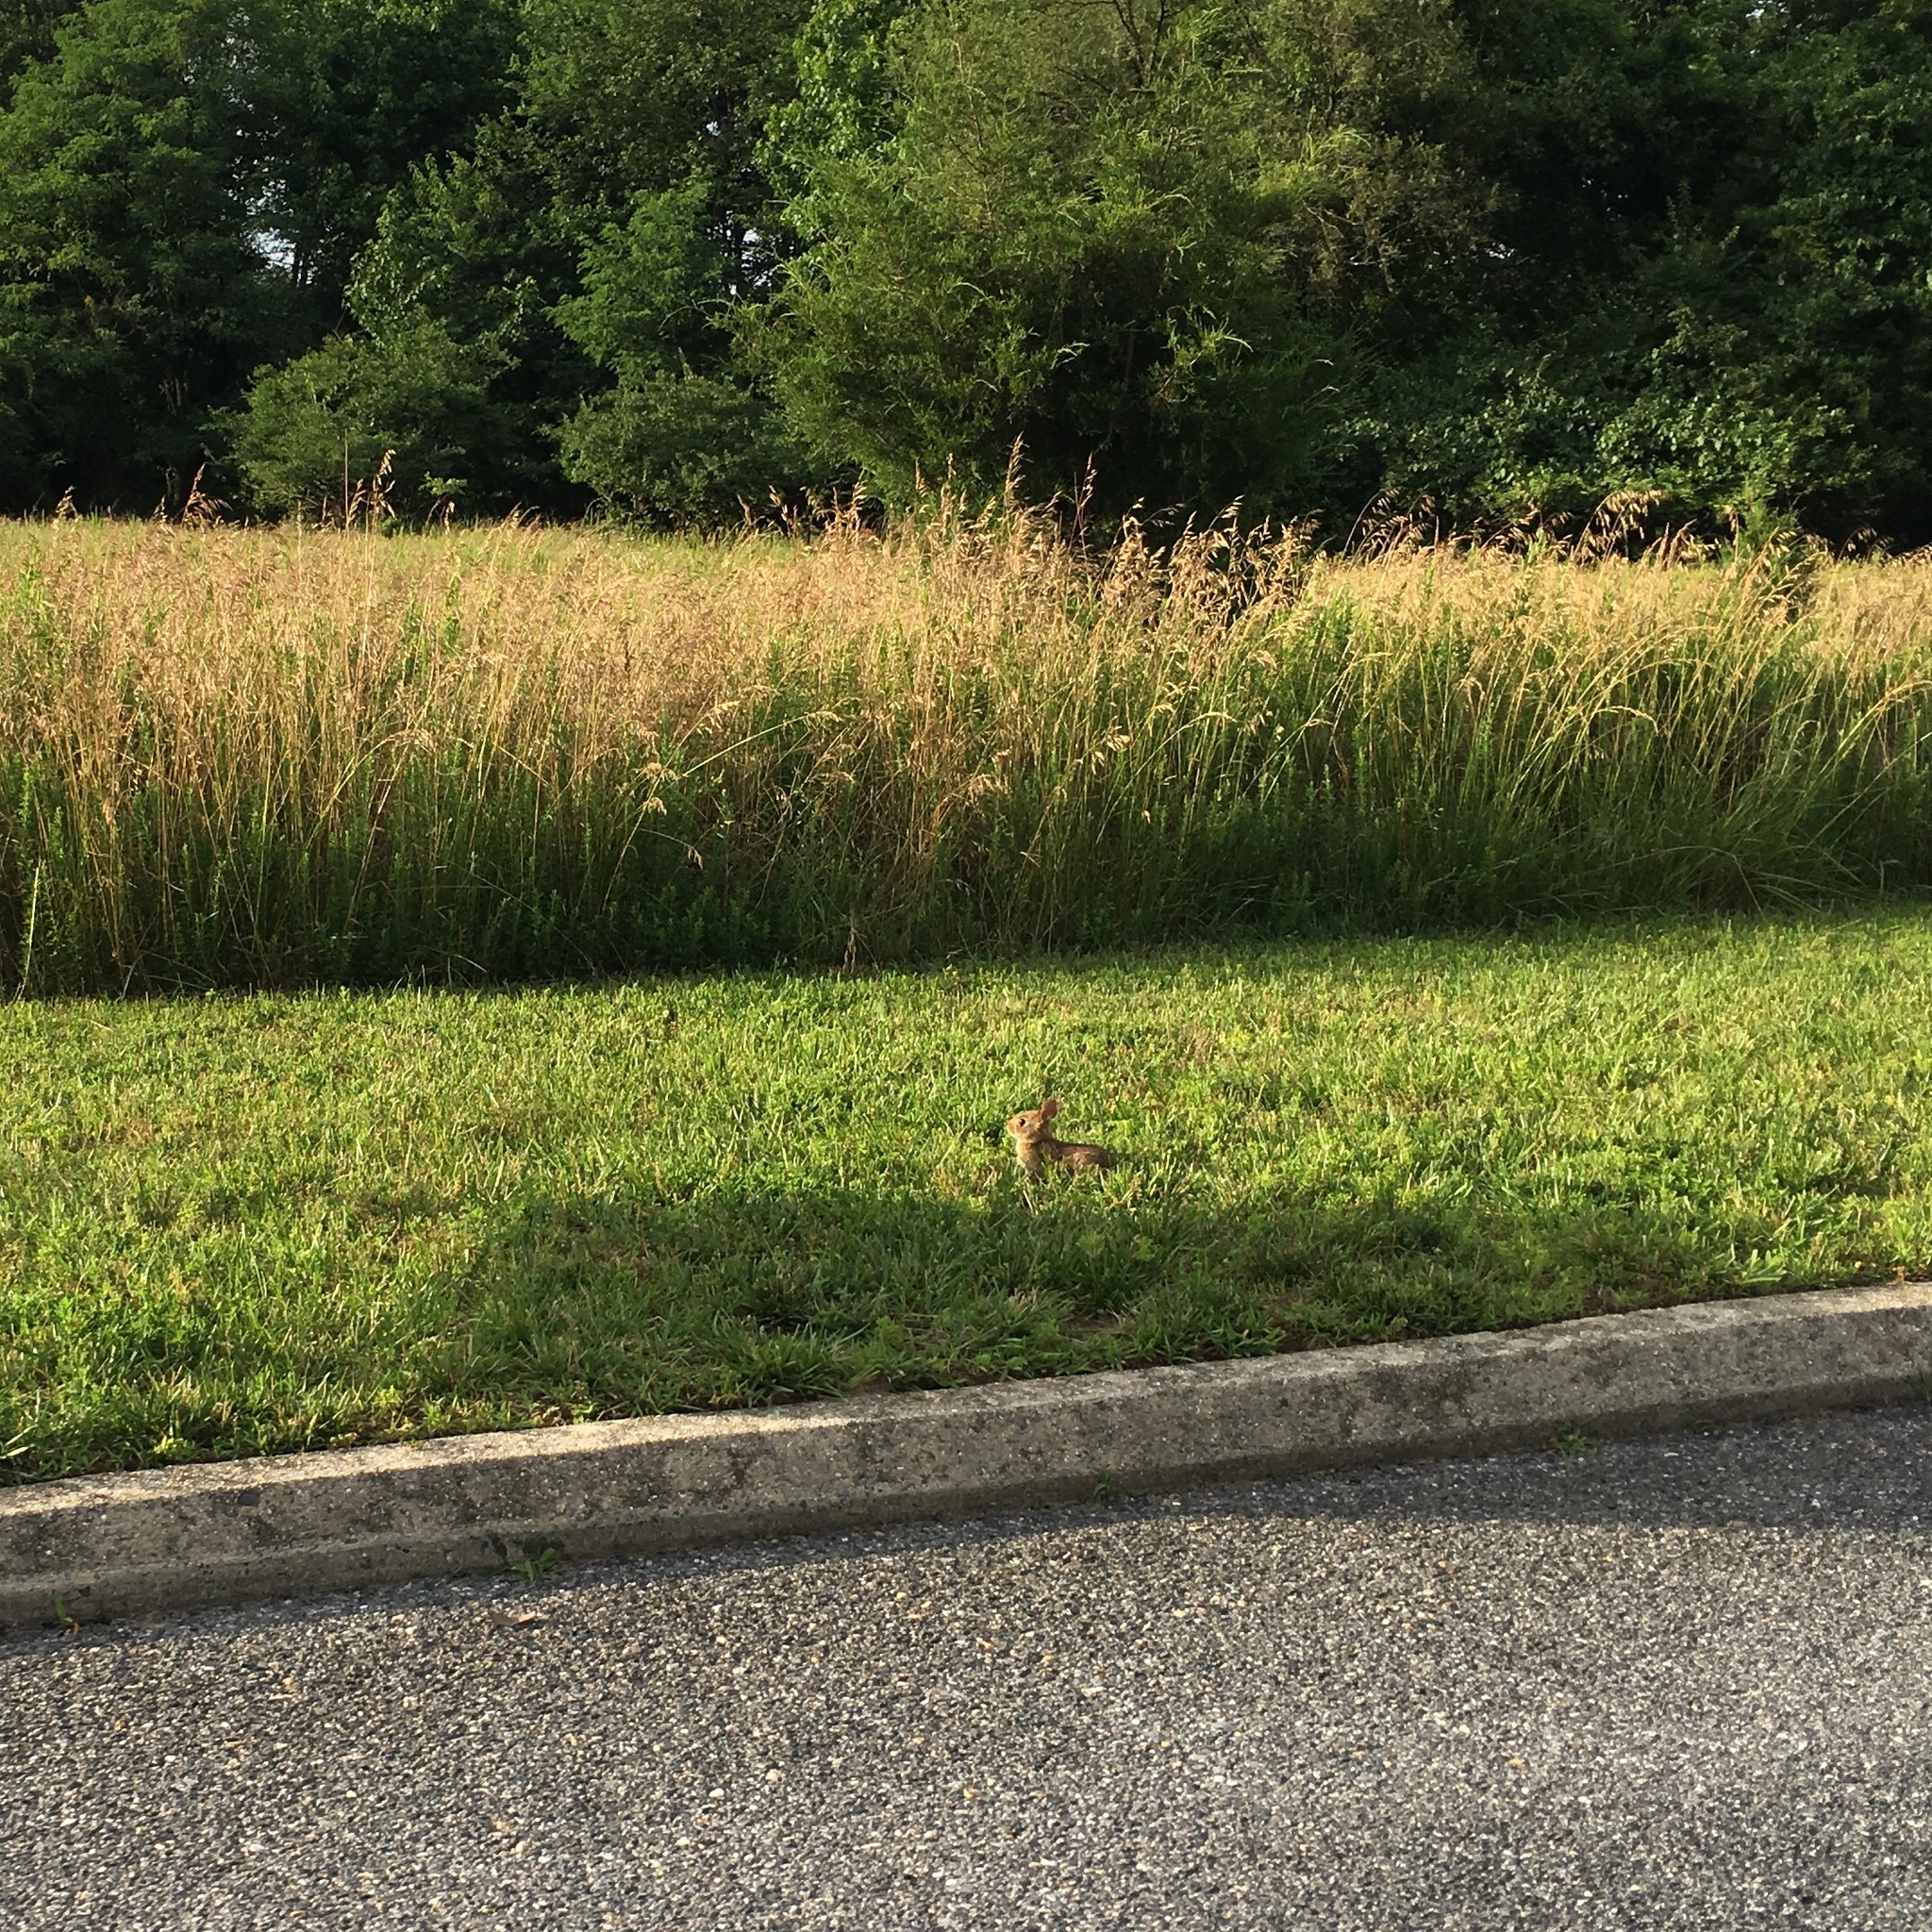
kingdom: Animalia
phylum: Chordata
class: Mammalia
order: Lagomorpha
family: Leporidae
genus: Sylvilagus
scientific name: Sylvilagus floridanus
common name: Eastern cottontail
